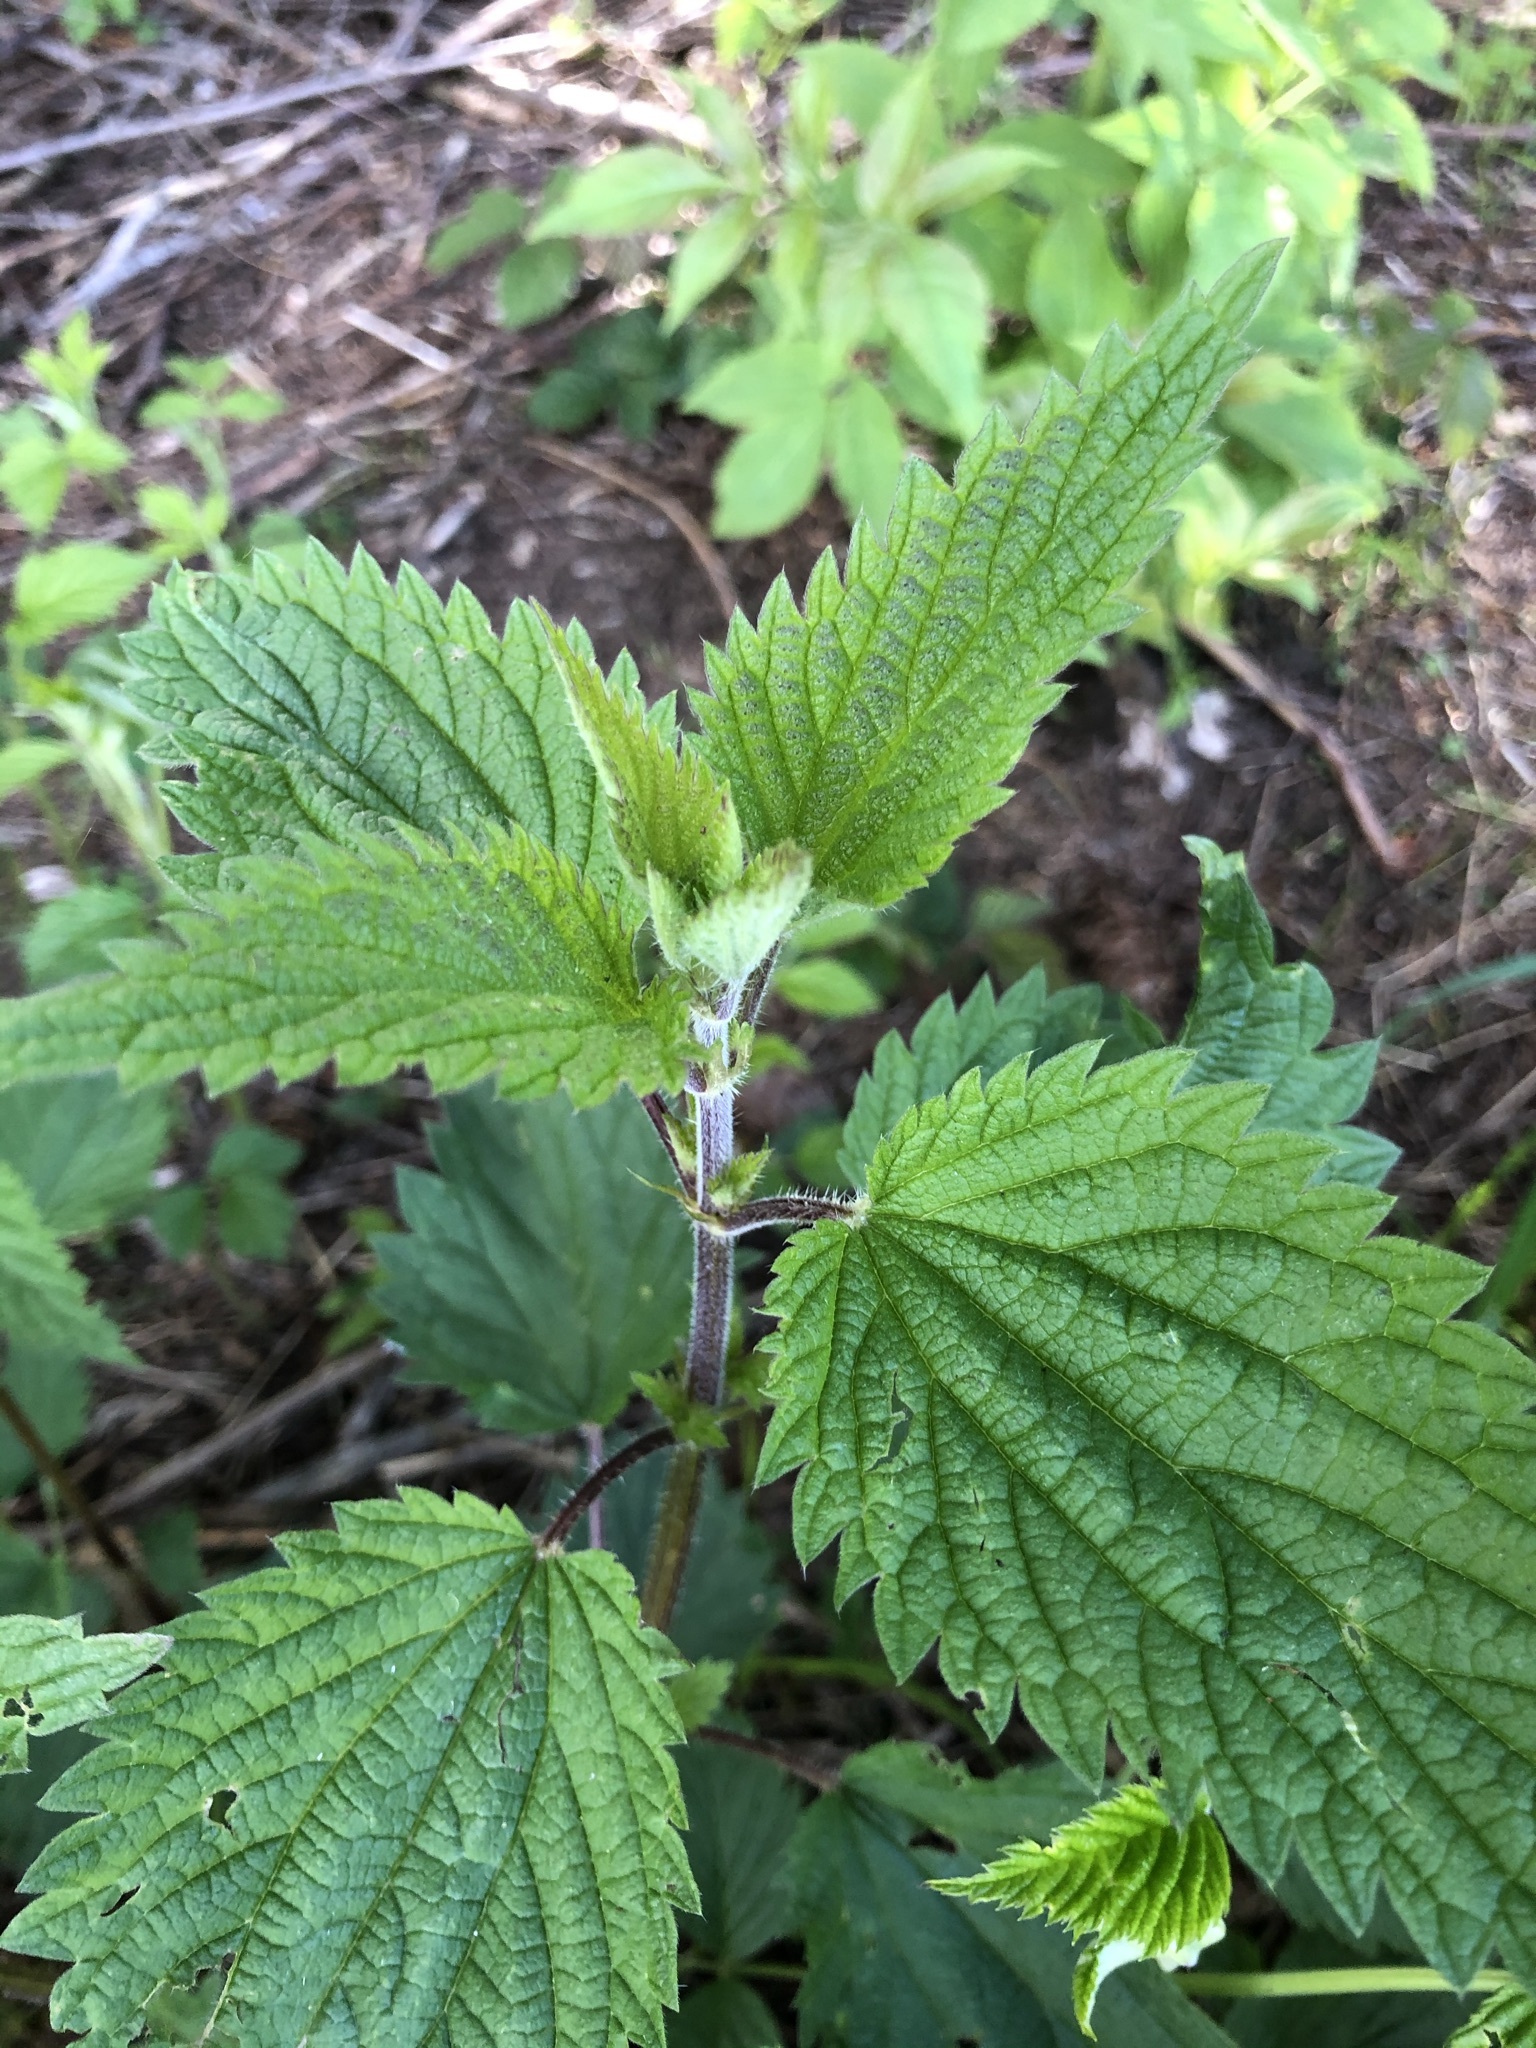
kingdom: Plantae
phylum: Tracheophyta
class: Magnoliopsida
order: Rosales
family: Urticaceae
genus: Urtica
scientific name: Urtica dioica
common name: Common nettle
